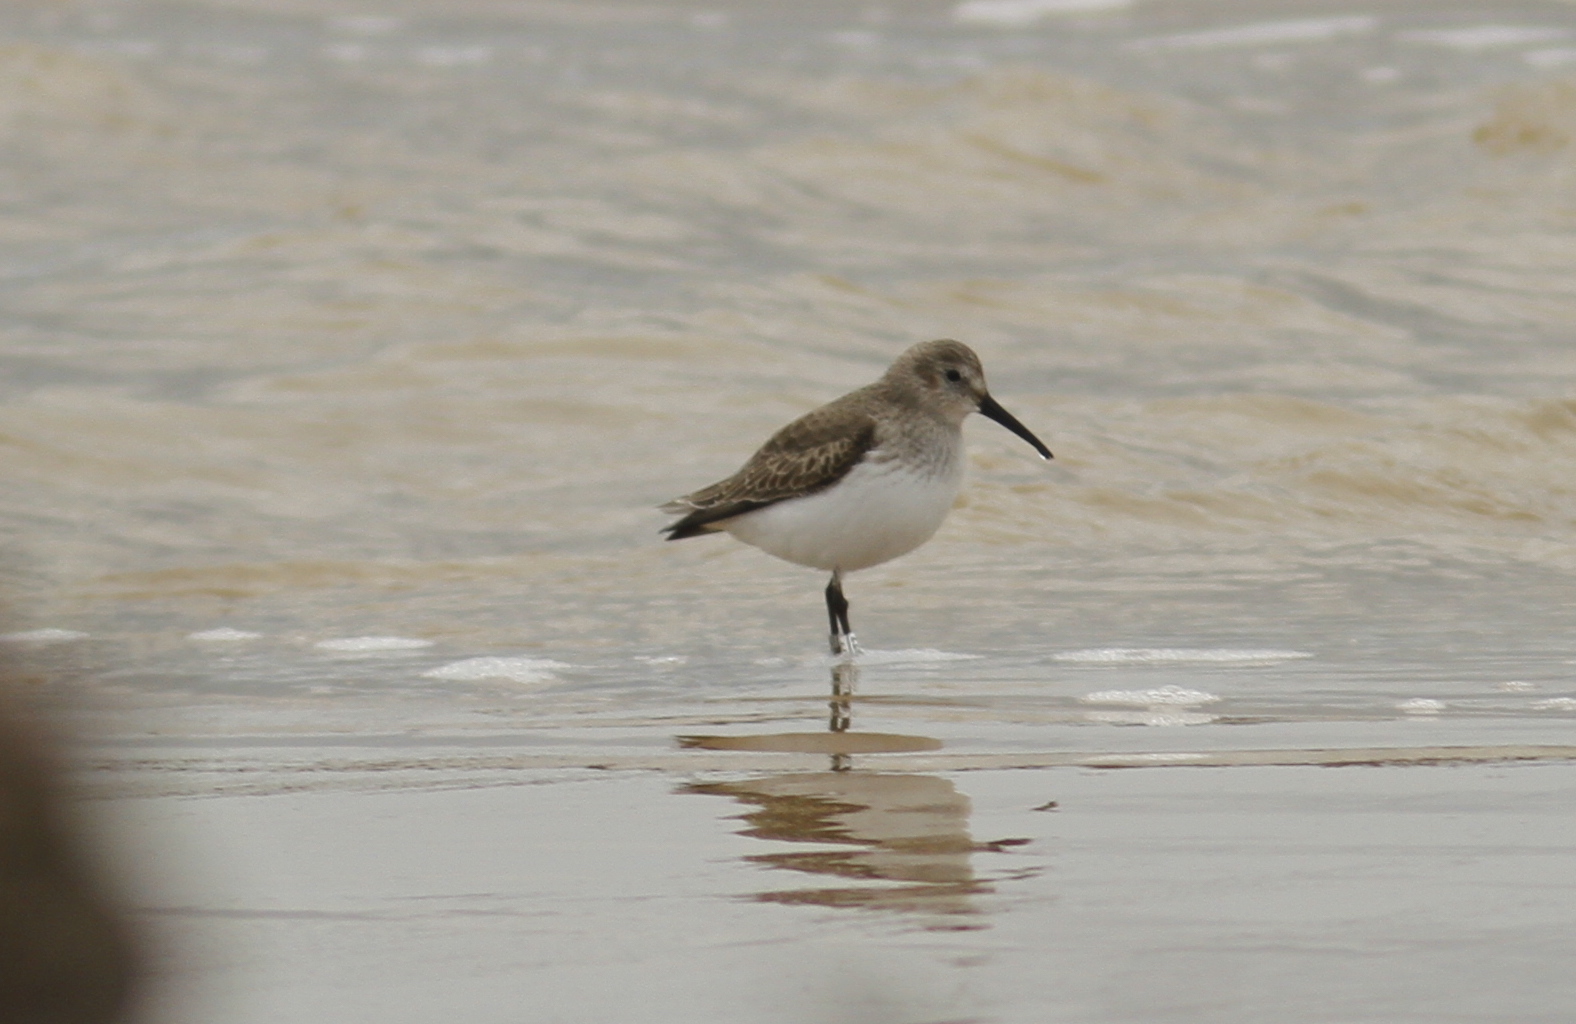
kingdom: Animalia
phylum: Chordata
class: Aves
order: Charadriiformes
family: Scolopacidae
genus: Calidris
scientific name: Calidris alpina
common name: Dunlin
